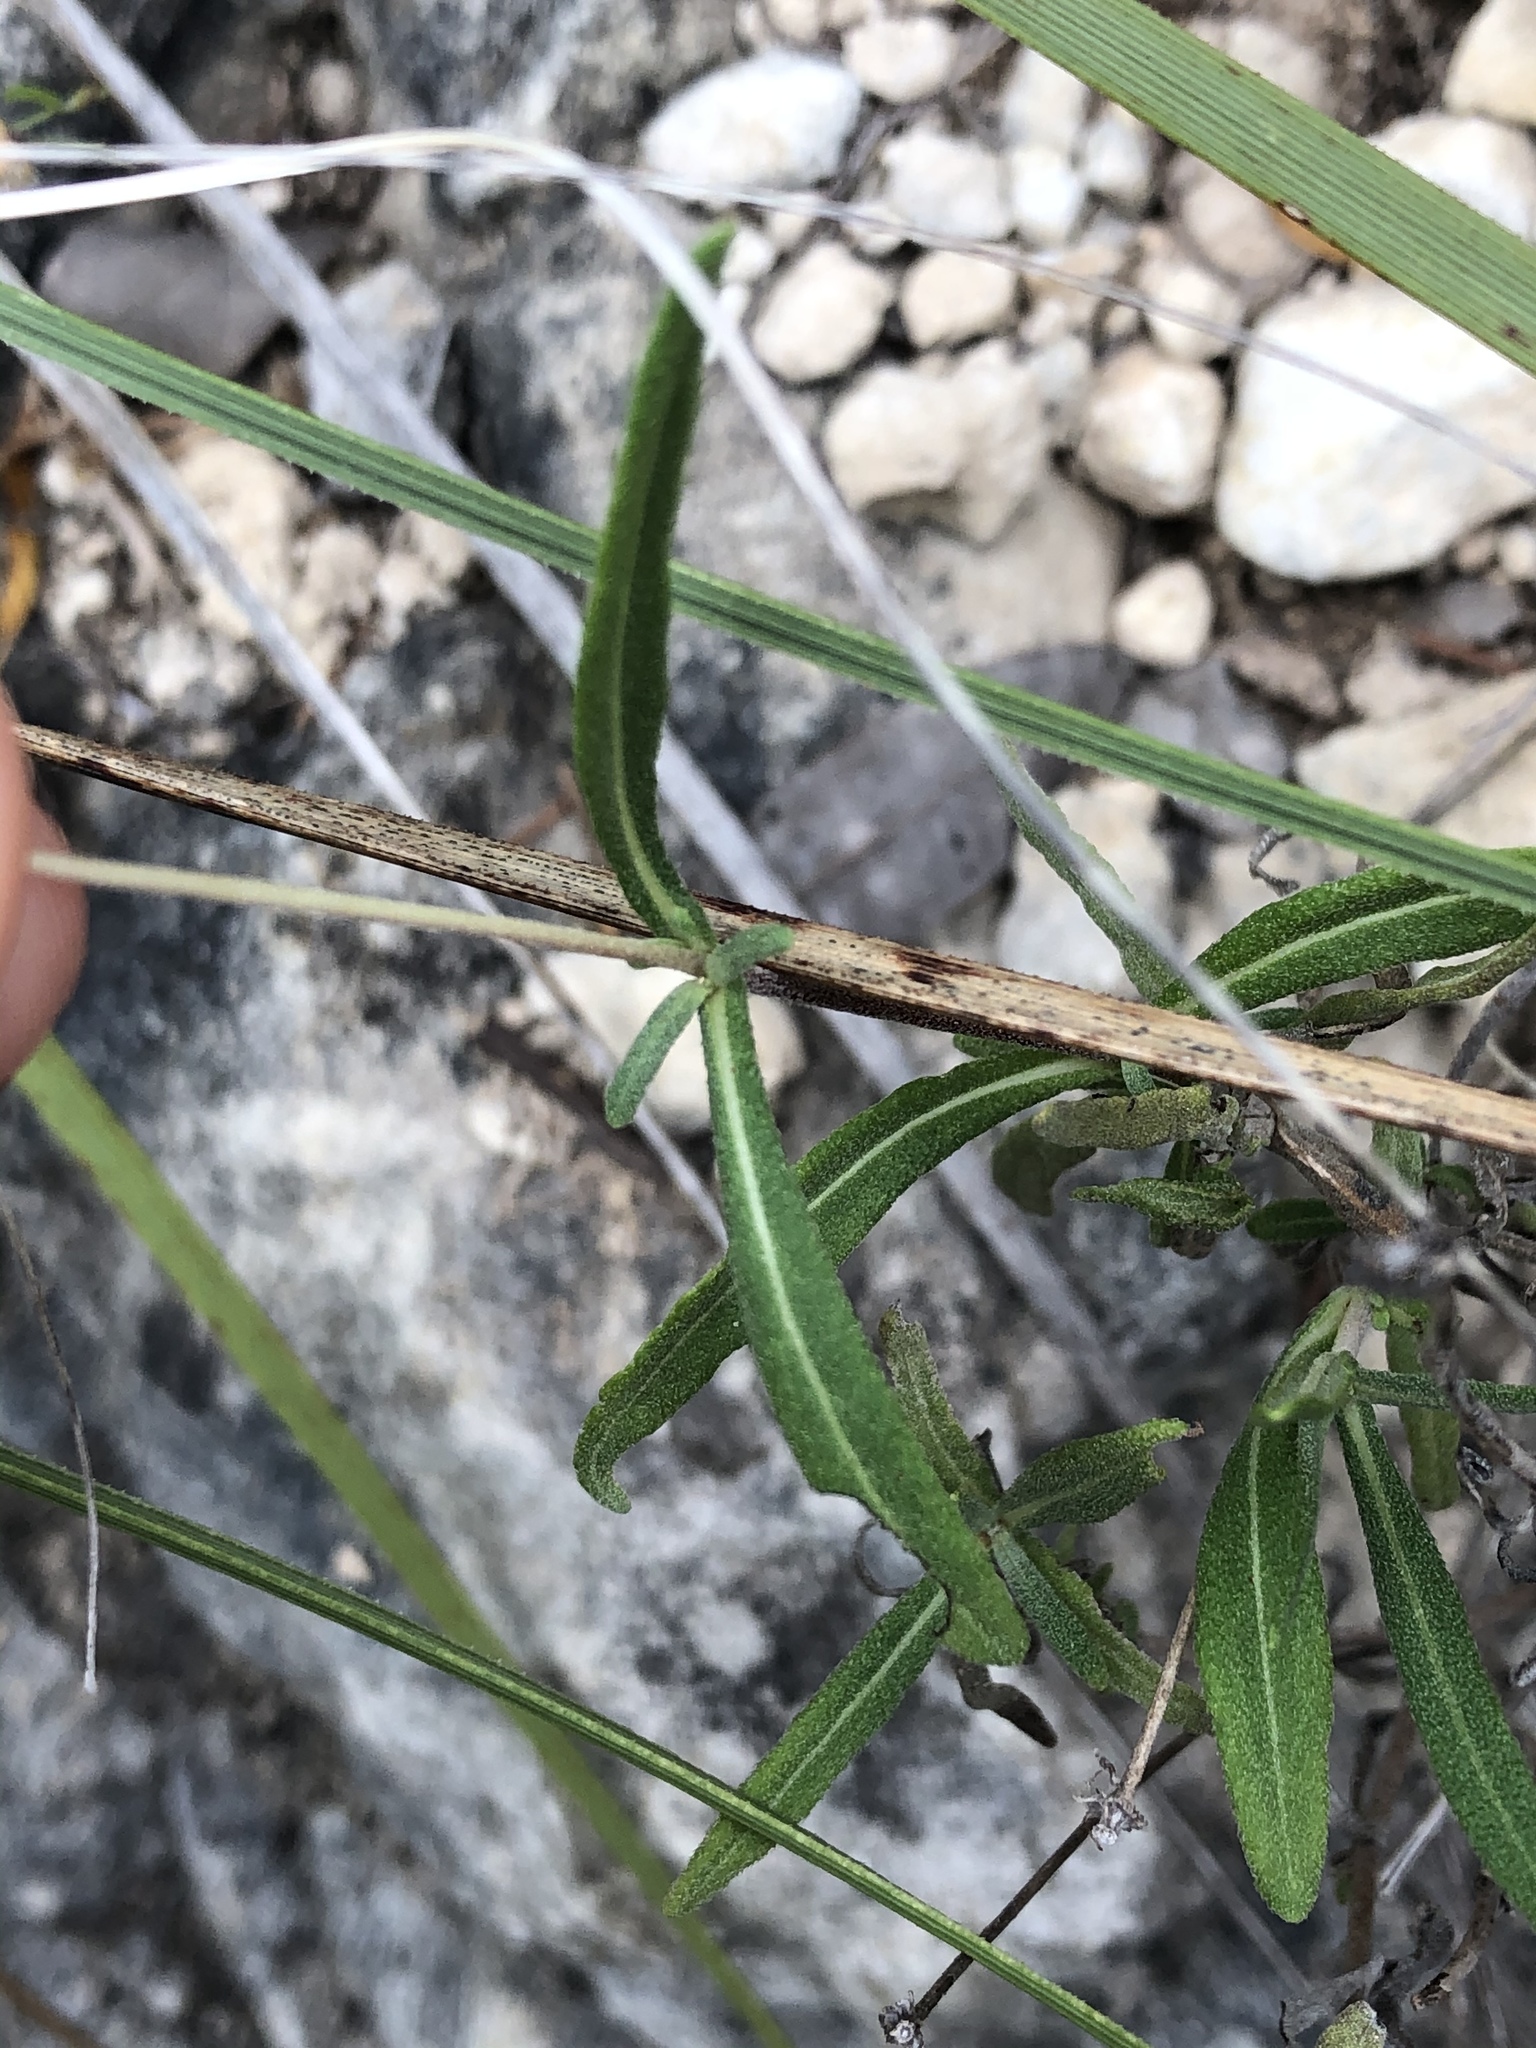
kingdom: Plantae
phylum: Tracheophyta
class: Magnoliopsida
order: Asterales
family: Asteraceae
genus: Melampodium
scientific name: Melampodium leucanthum
